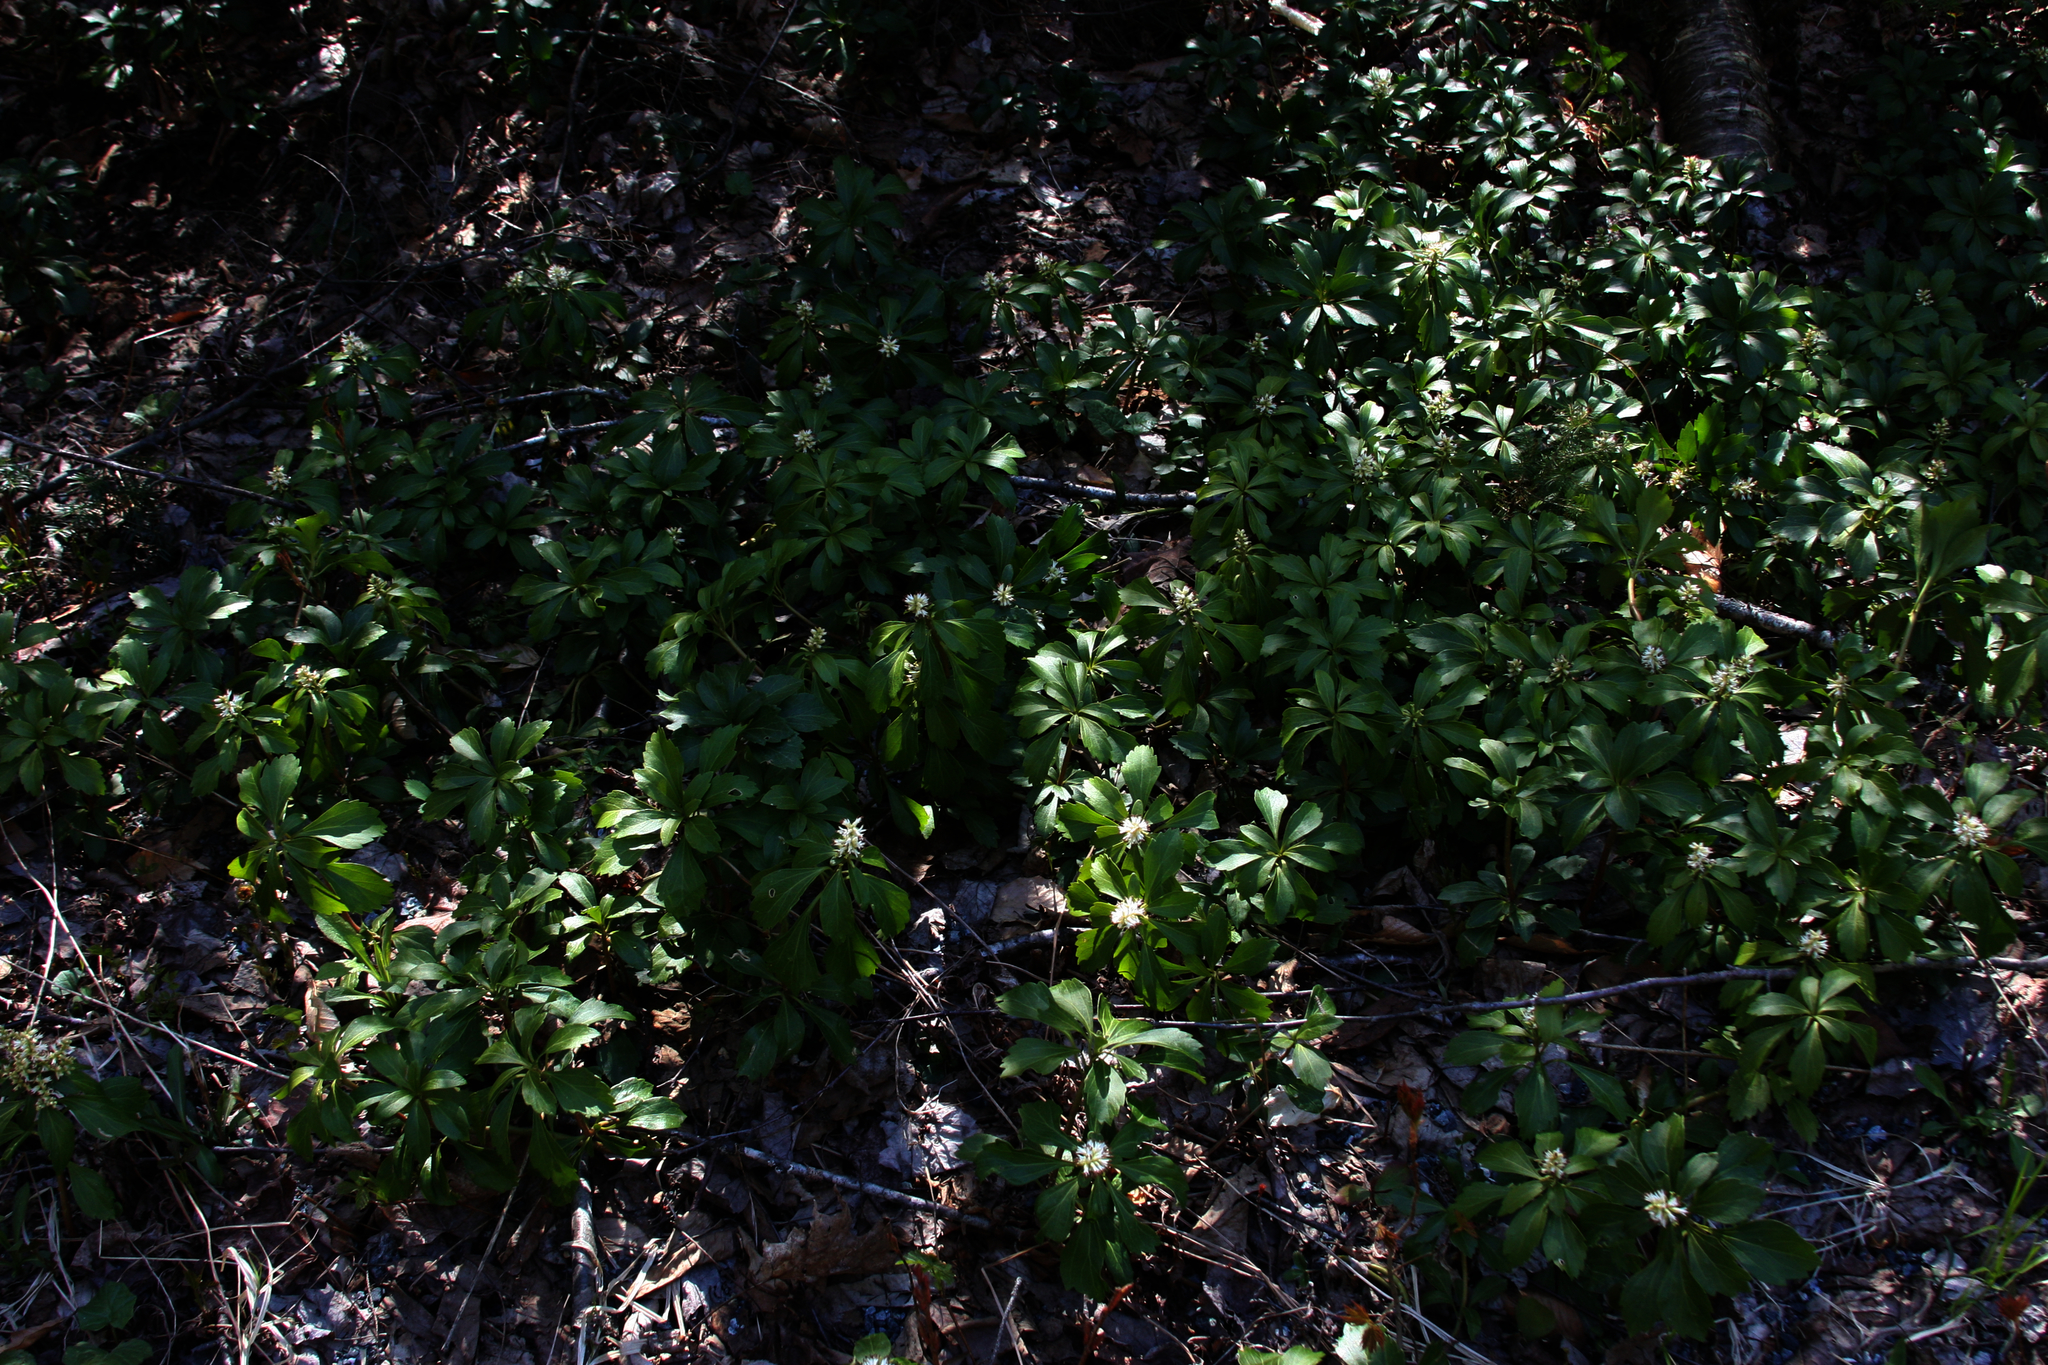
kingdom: Plantae
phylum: Tracheophyta
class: Magnoliopsida
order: Buxales
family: Buxaceae
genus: Pachysandra
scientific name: Pachysandra terminalis
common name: Japanese pachysandra
